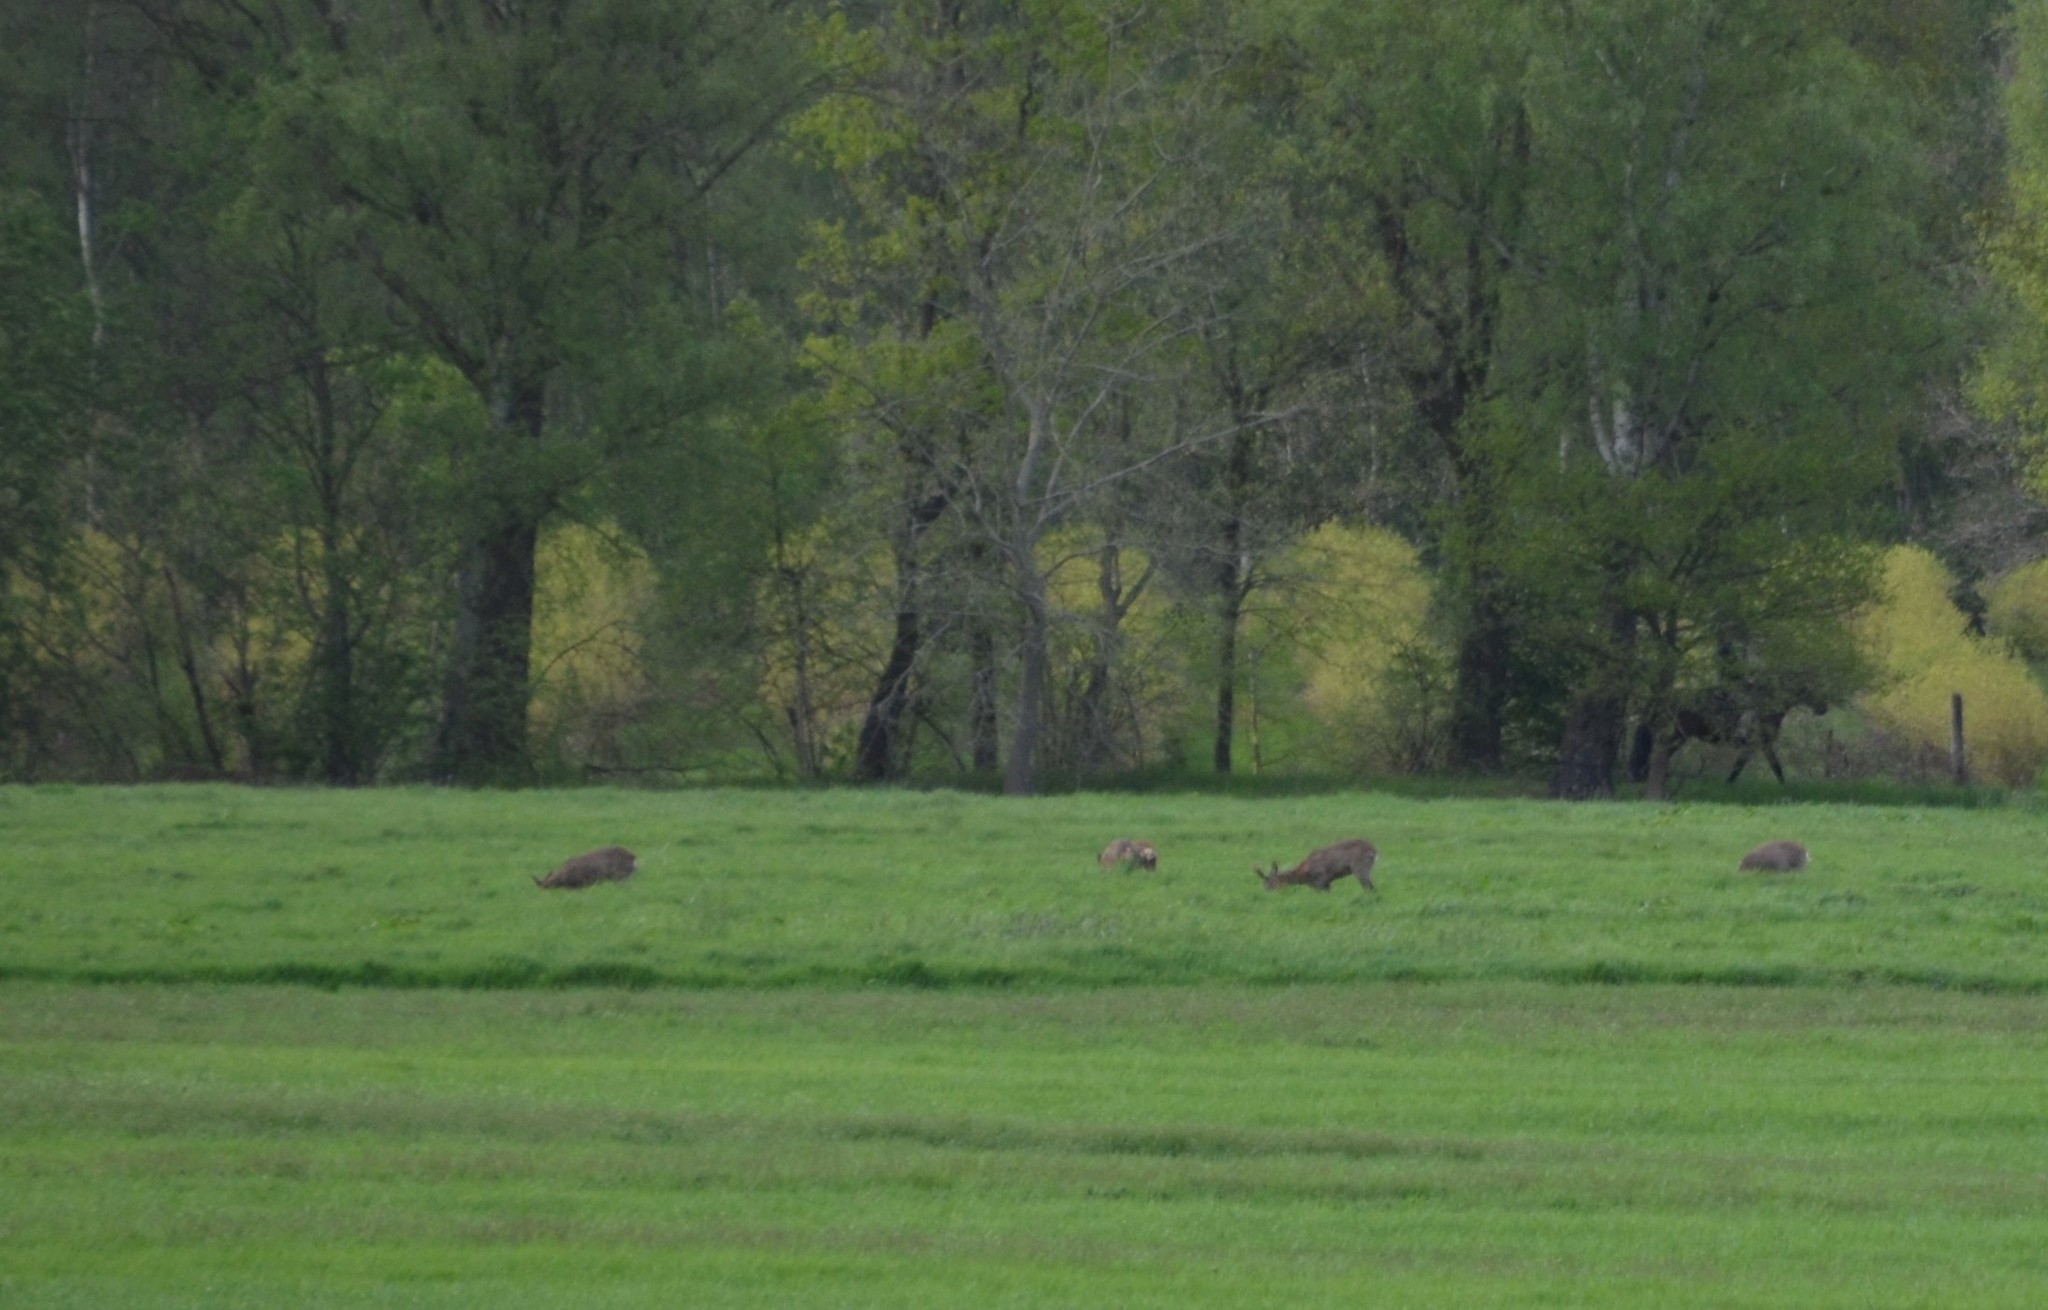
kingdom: Animalia
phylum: Chordata
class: Mammalia
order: Artiodactyla
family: Cervidae
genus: Capreolus
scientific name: Capreolus capreolus
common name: Western roe deer
